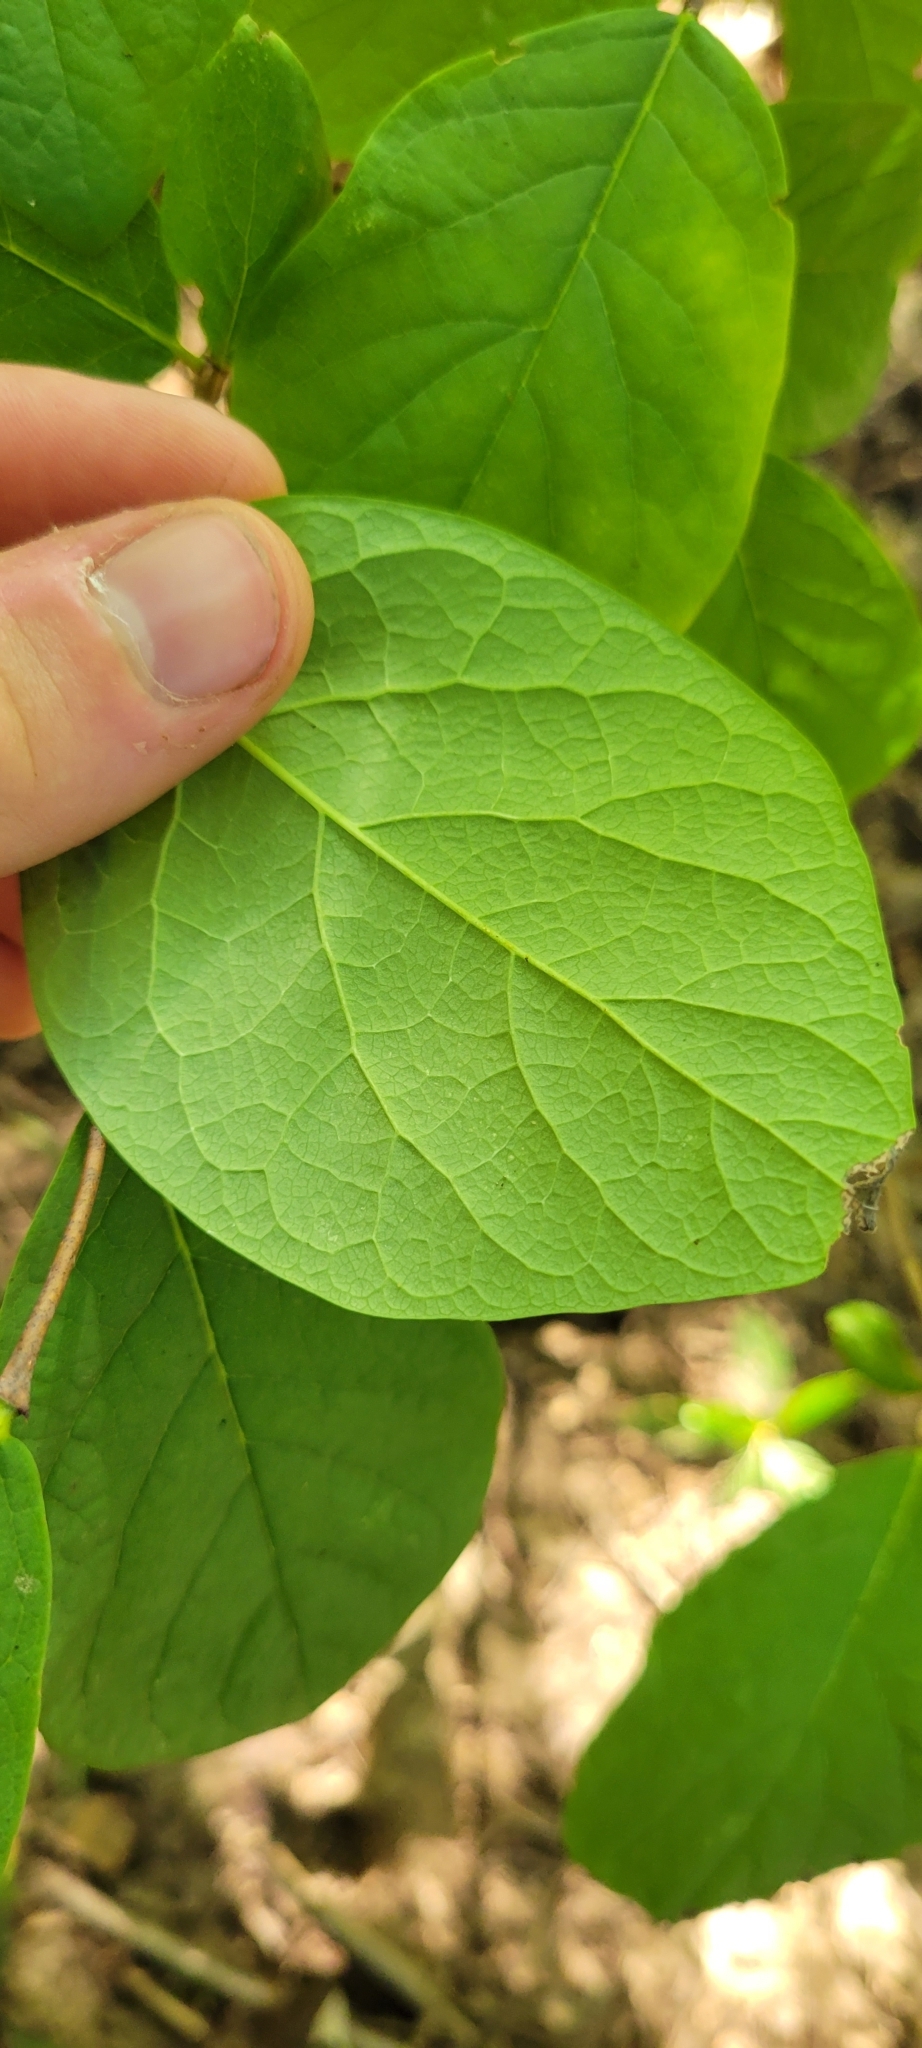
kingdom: Plantae
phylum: Tracheophyta
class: Magnoliopsida
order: Malvales
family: Thymelaeaceae
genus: Dirca
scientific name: Dirca palustris
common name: Leatherwood
